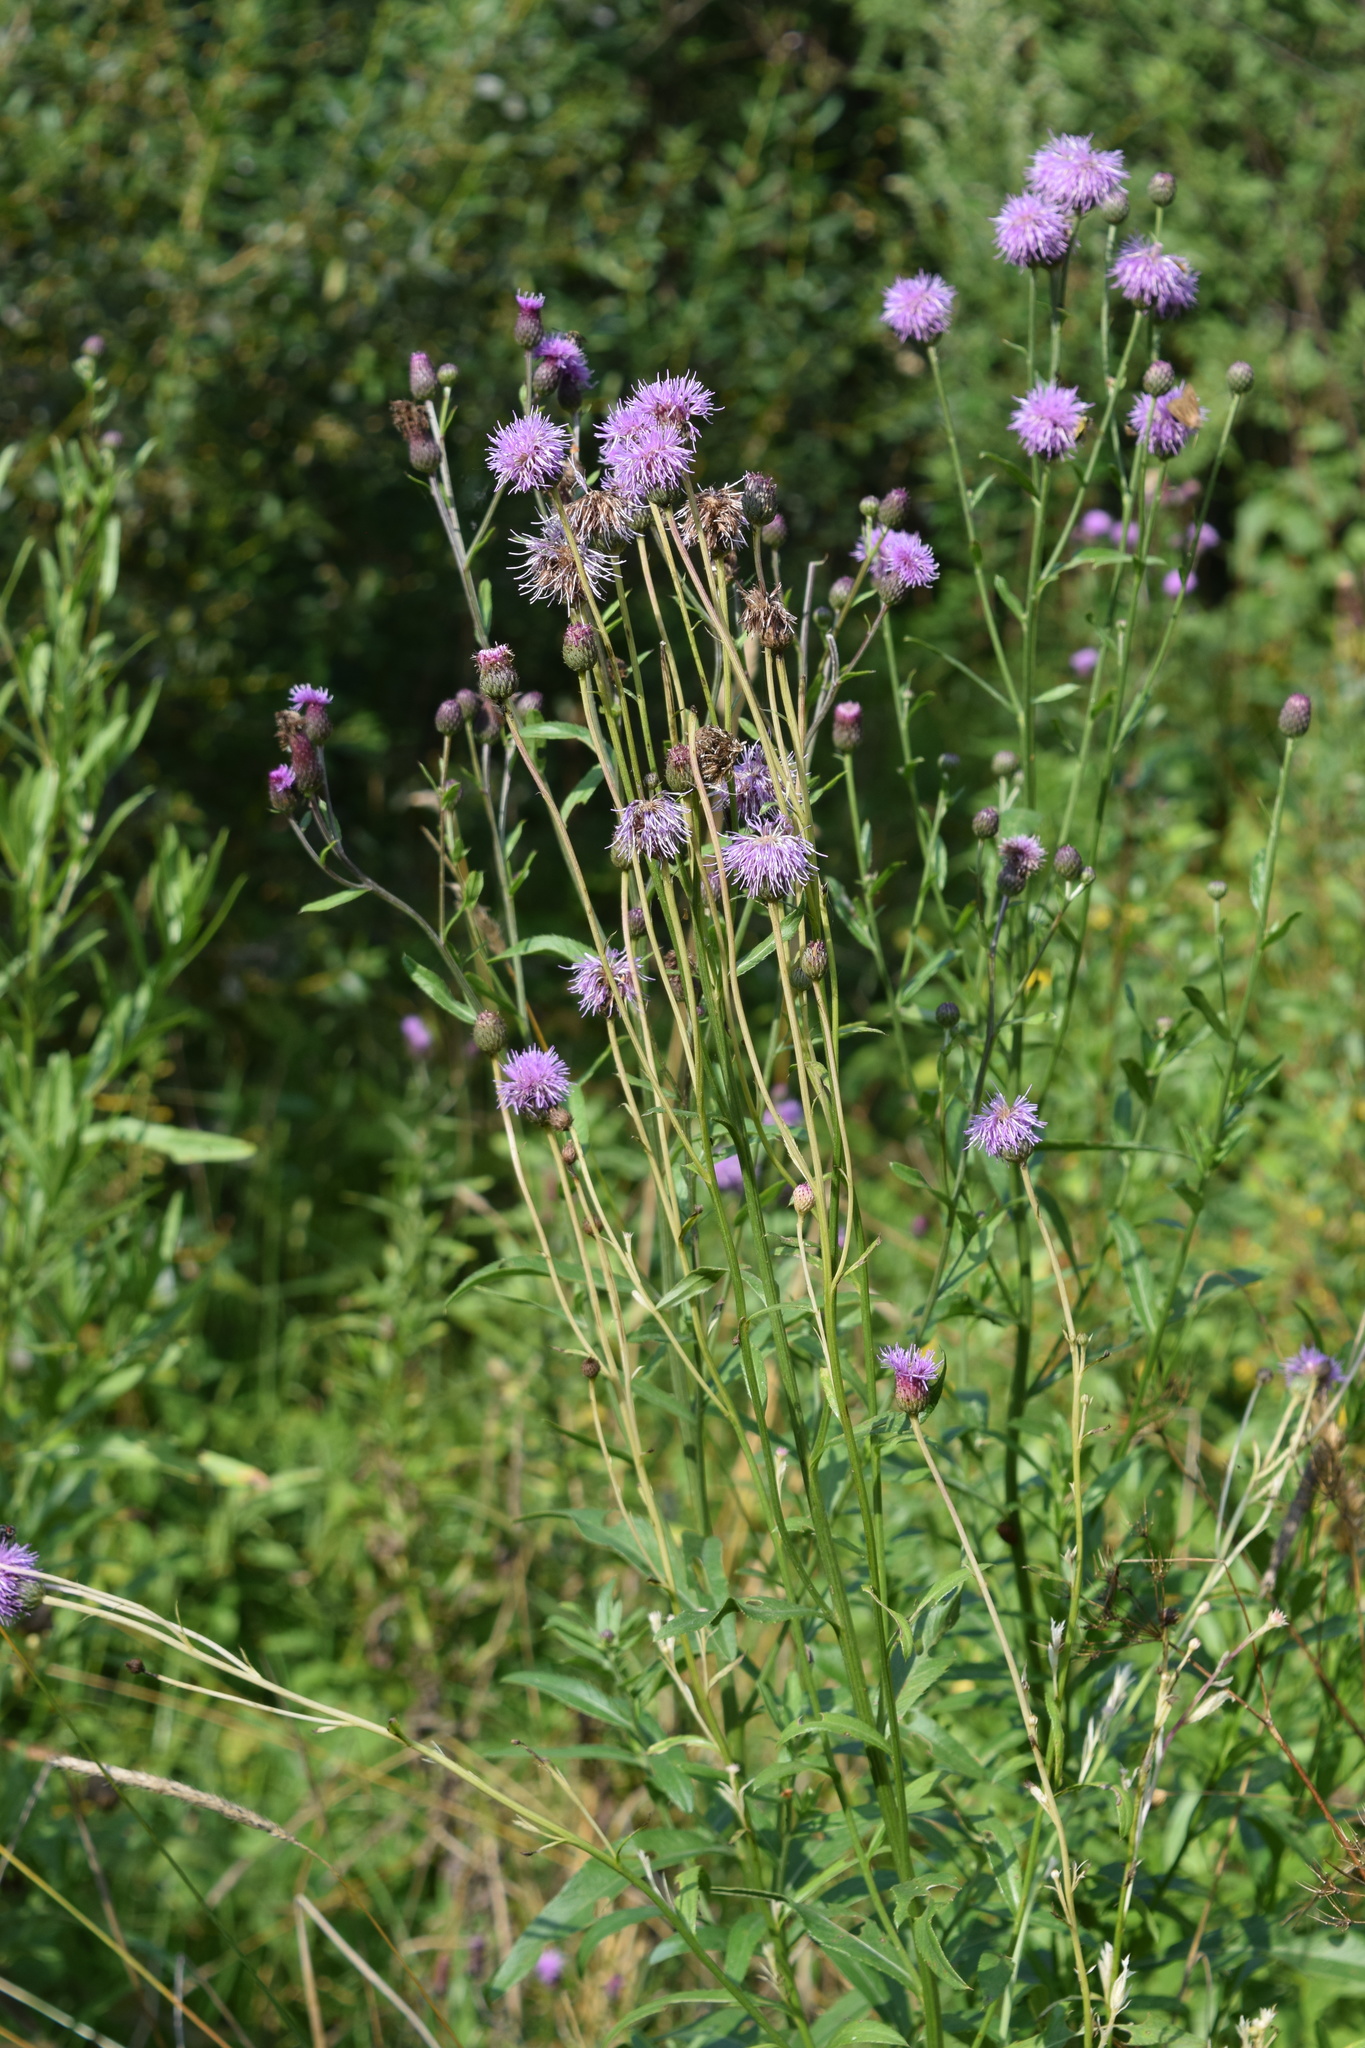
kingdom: Plantae
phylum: Tracheophyta
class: Magnoliopsida
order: Asterales
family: Asteraceae
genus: Cirsium
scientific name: Cirsium arvense
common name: Creeping thistle
